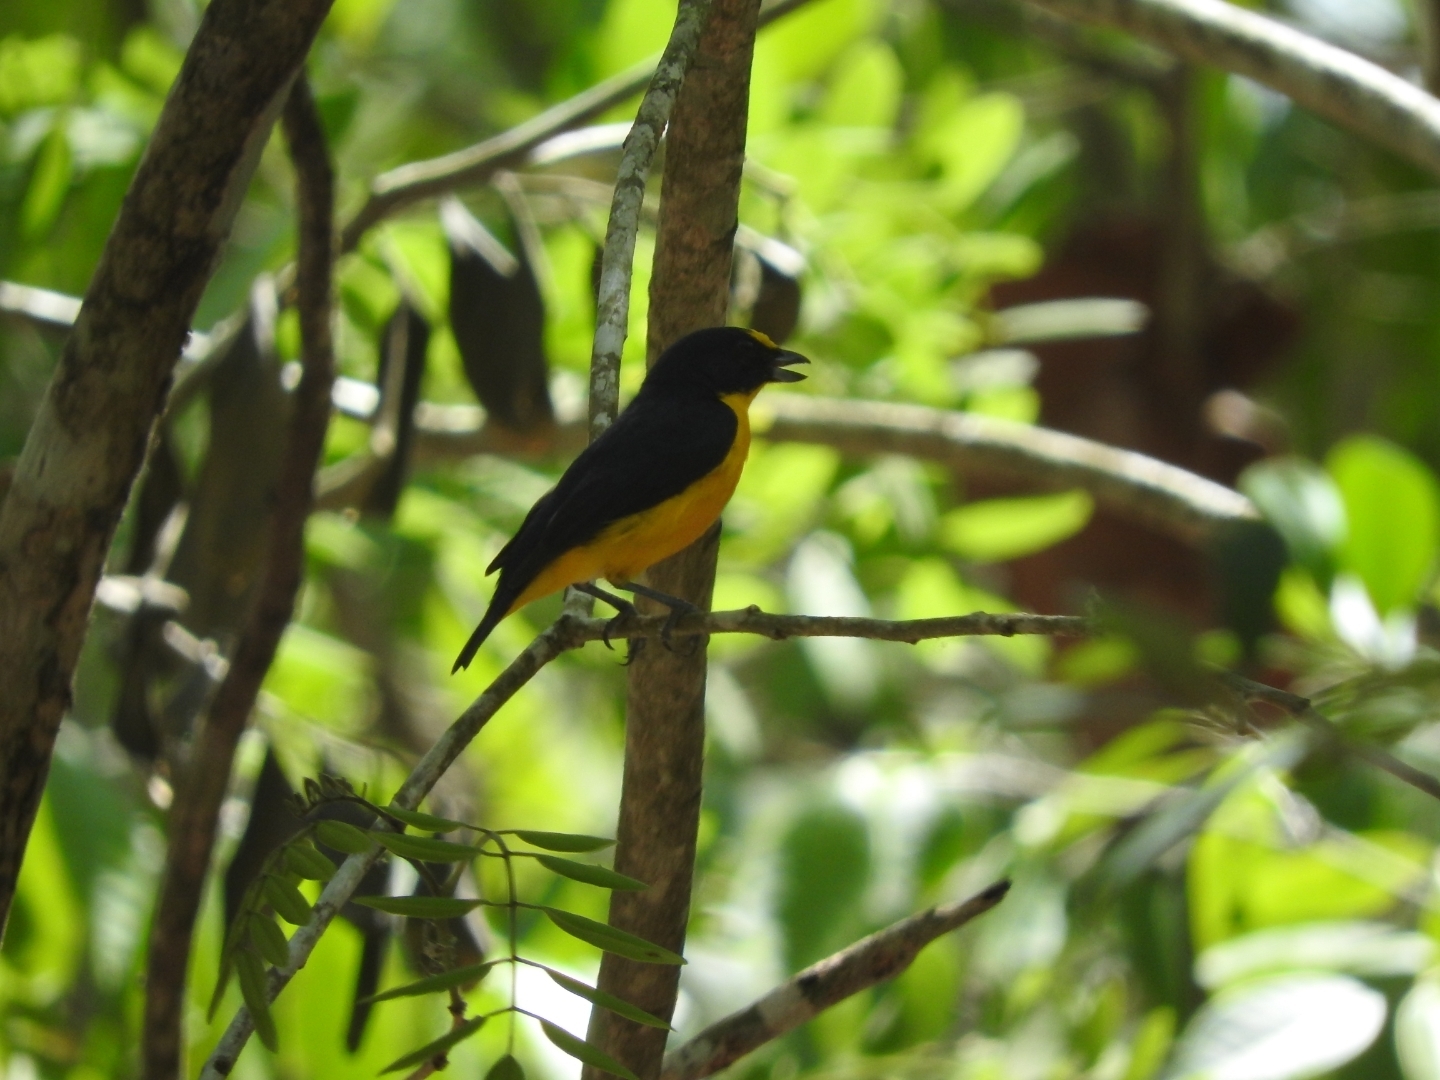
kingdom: Animalia
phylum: Chordata
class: Aves
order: Passeriformes
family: Fringillidae
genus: Euphonia
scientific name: Euphonia hirundinacea
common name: Yellow-throated euphonia
